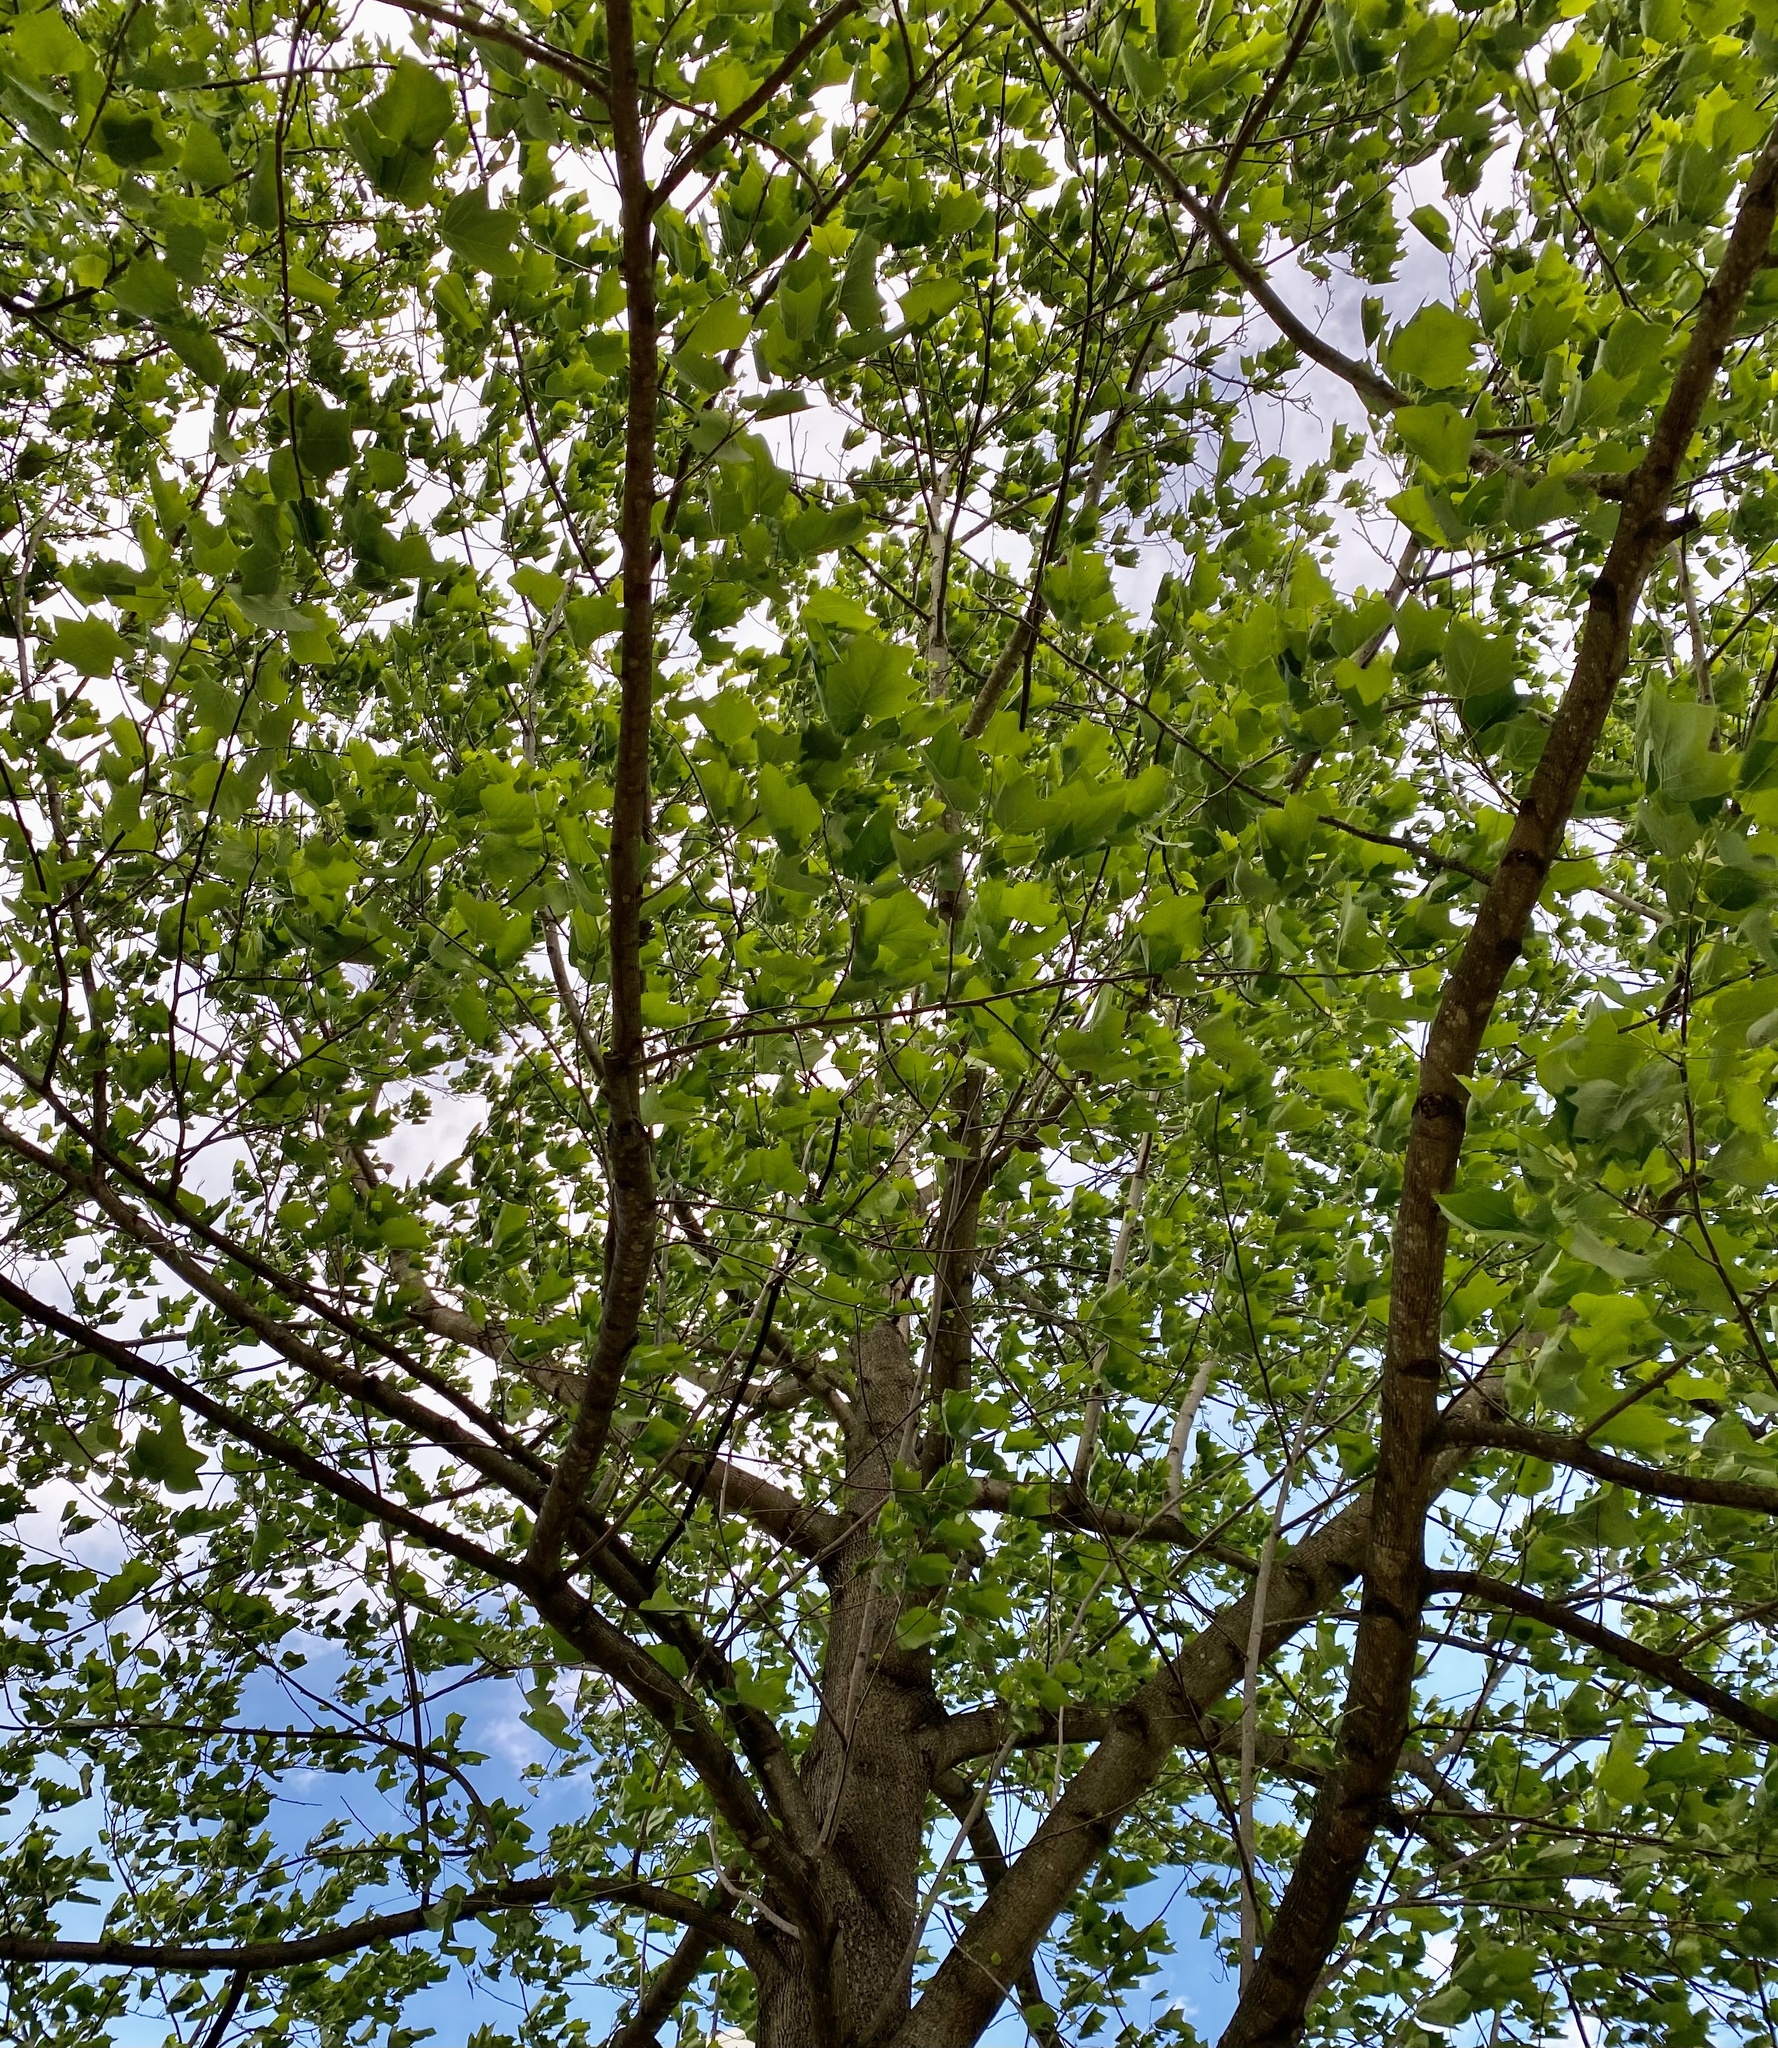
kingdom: Plantae
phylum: Tracheophyta
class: Magnoliopsida
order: Magnoliales
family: Magnoliaceae
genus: Liriodendron
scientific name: Liriodendron tulipifera
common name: Tulip tree
